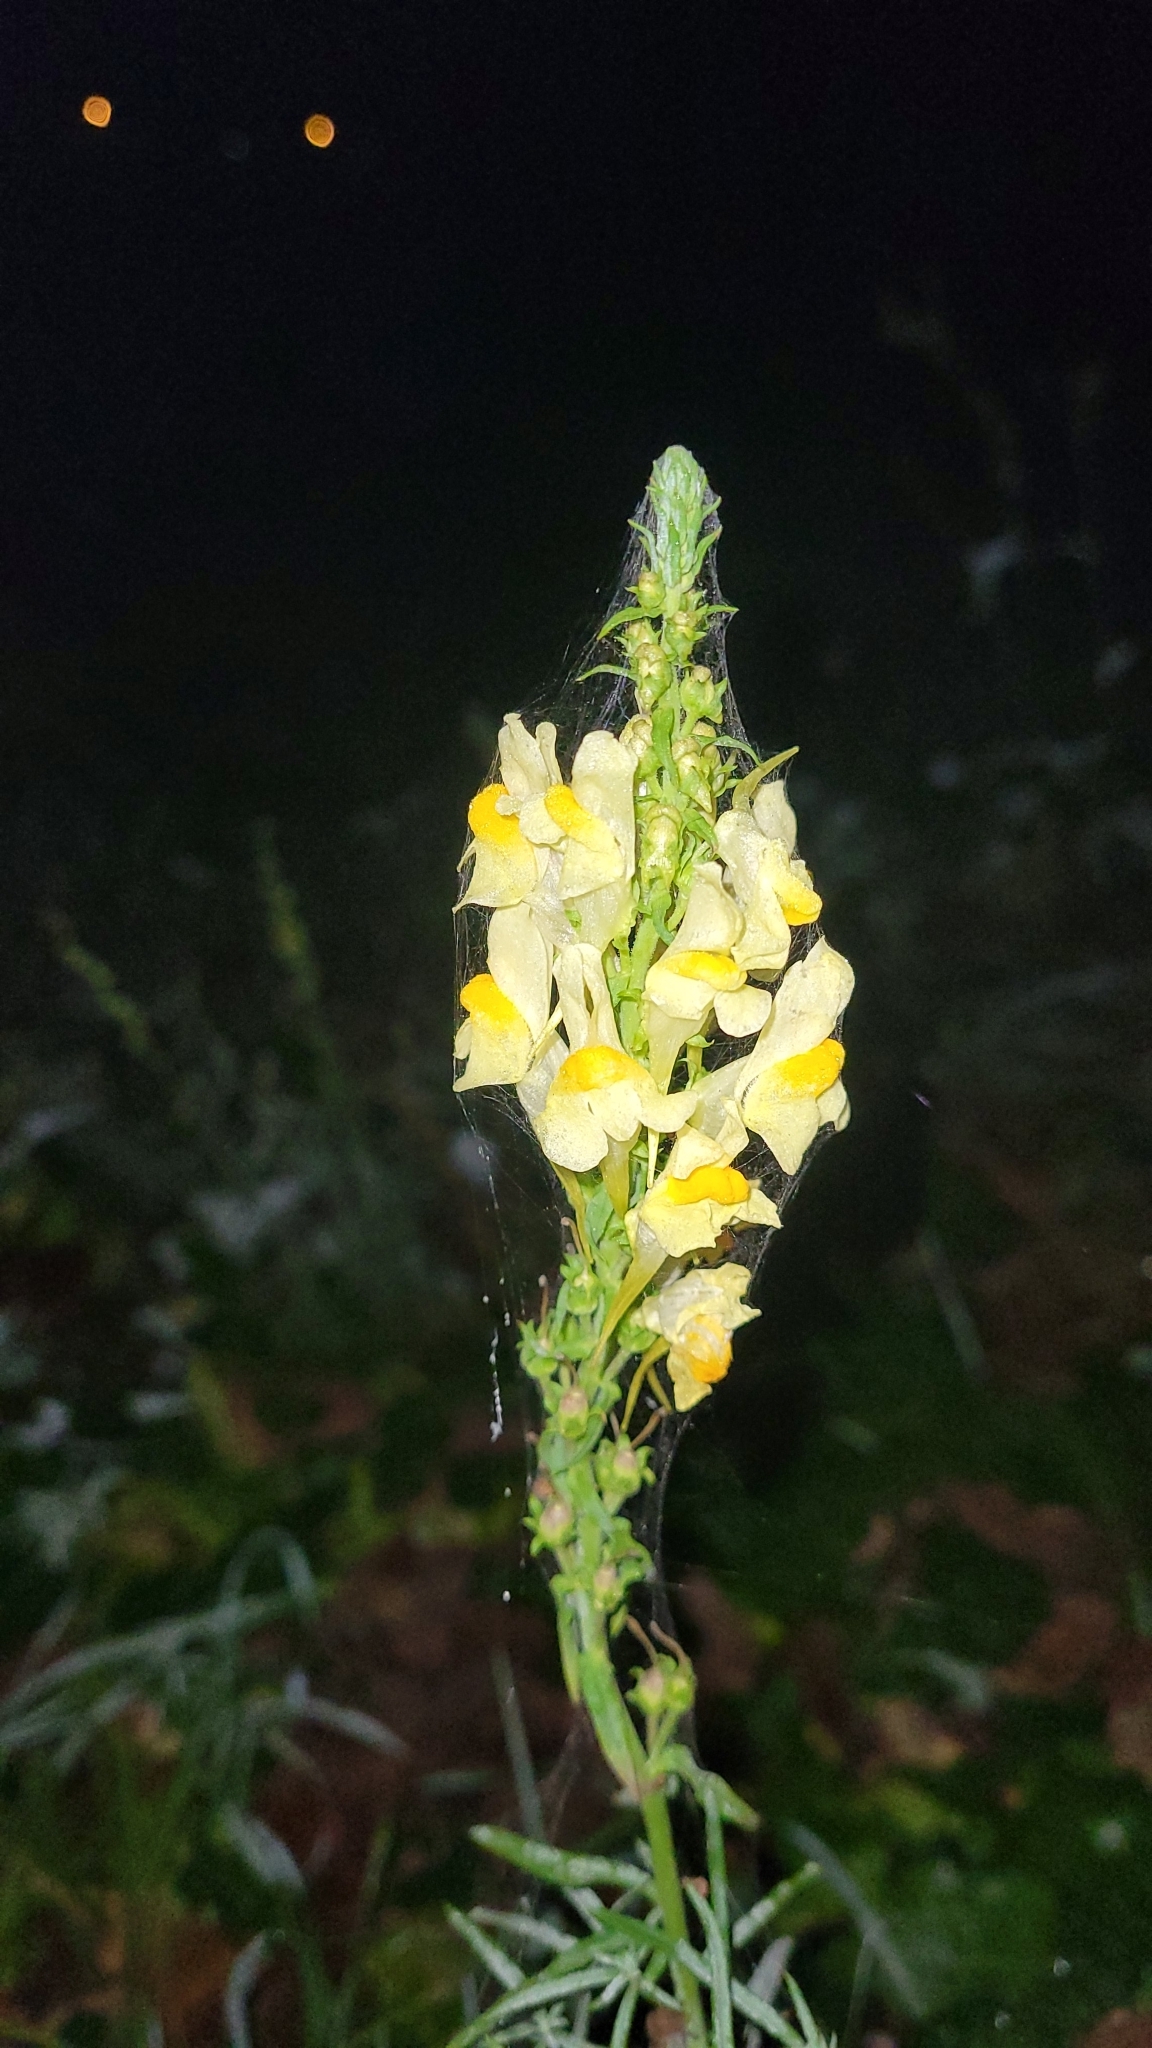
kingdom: Plantae
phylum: Tracheophyta
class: Magnoliopsida
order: Lamiales
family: Plantaginaceae
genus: Linaria
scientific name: Linaria vulgaris
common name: Butter and eggs
